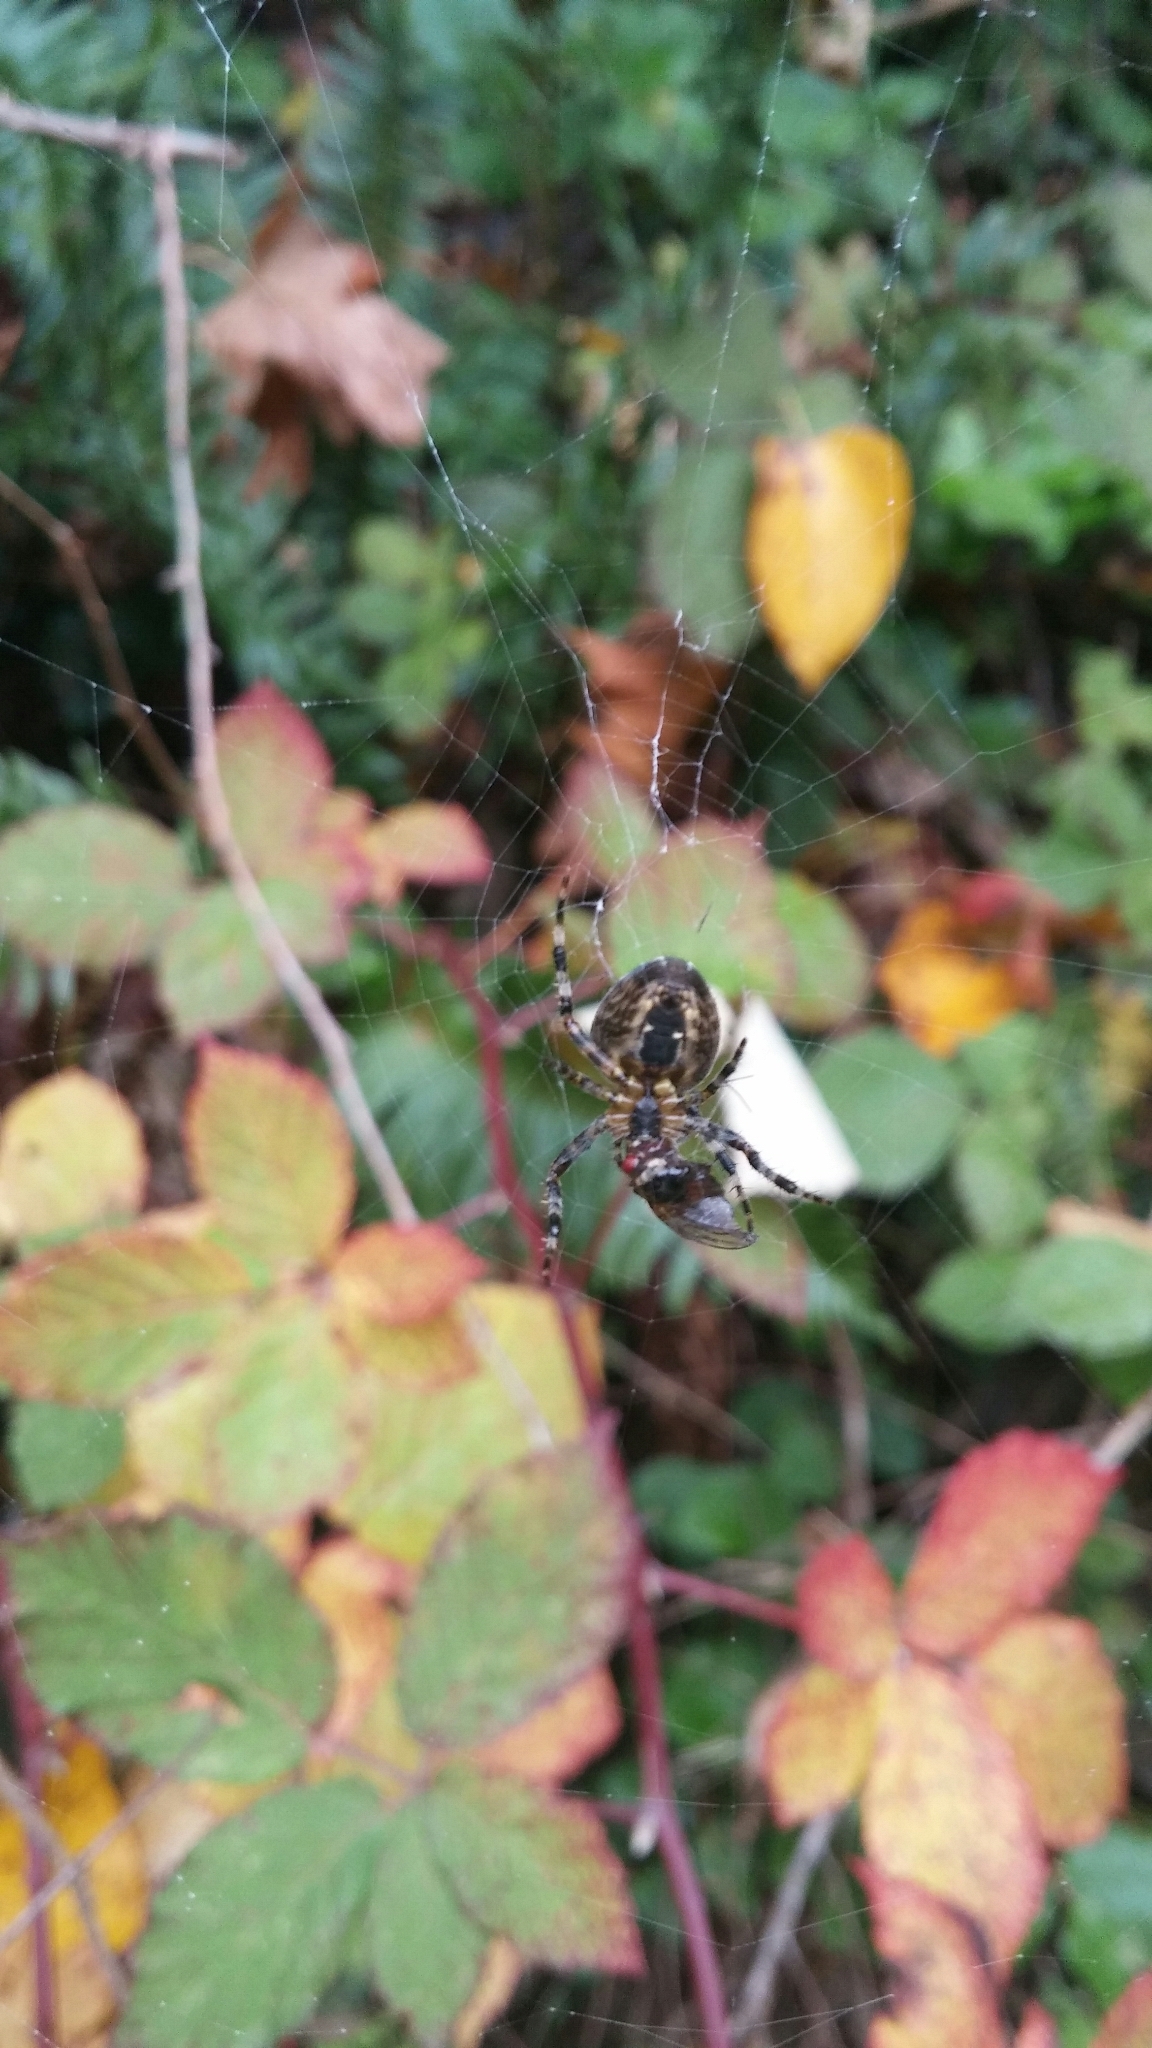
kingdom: Animalia
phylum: Arthropoda
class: Arachnida
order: Araneae
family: Araneidae
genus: Araneus
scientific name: Araneus diadematus
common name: Cross orbweaver
